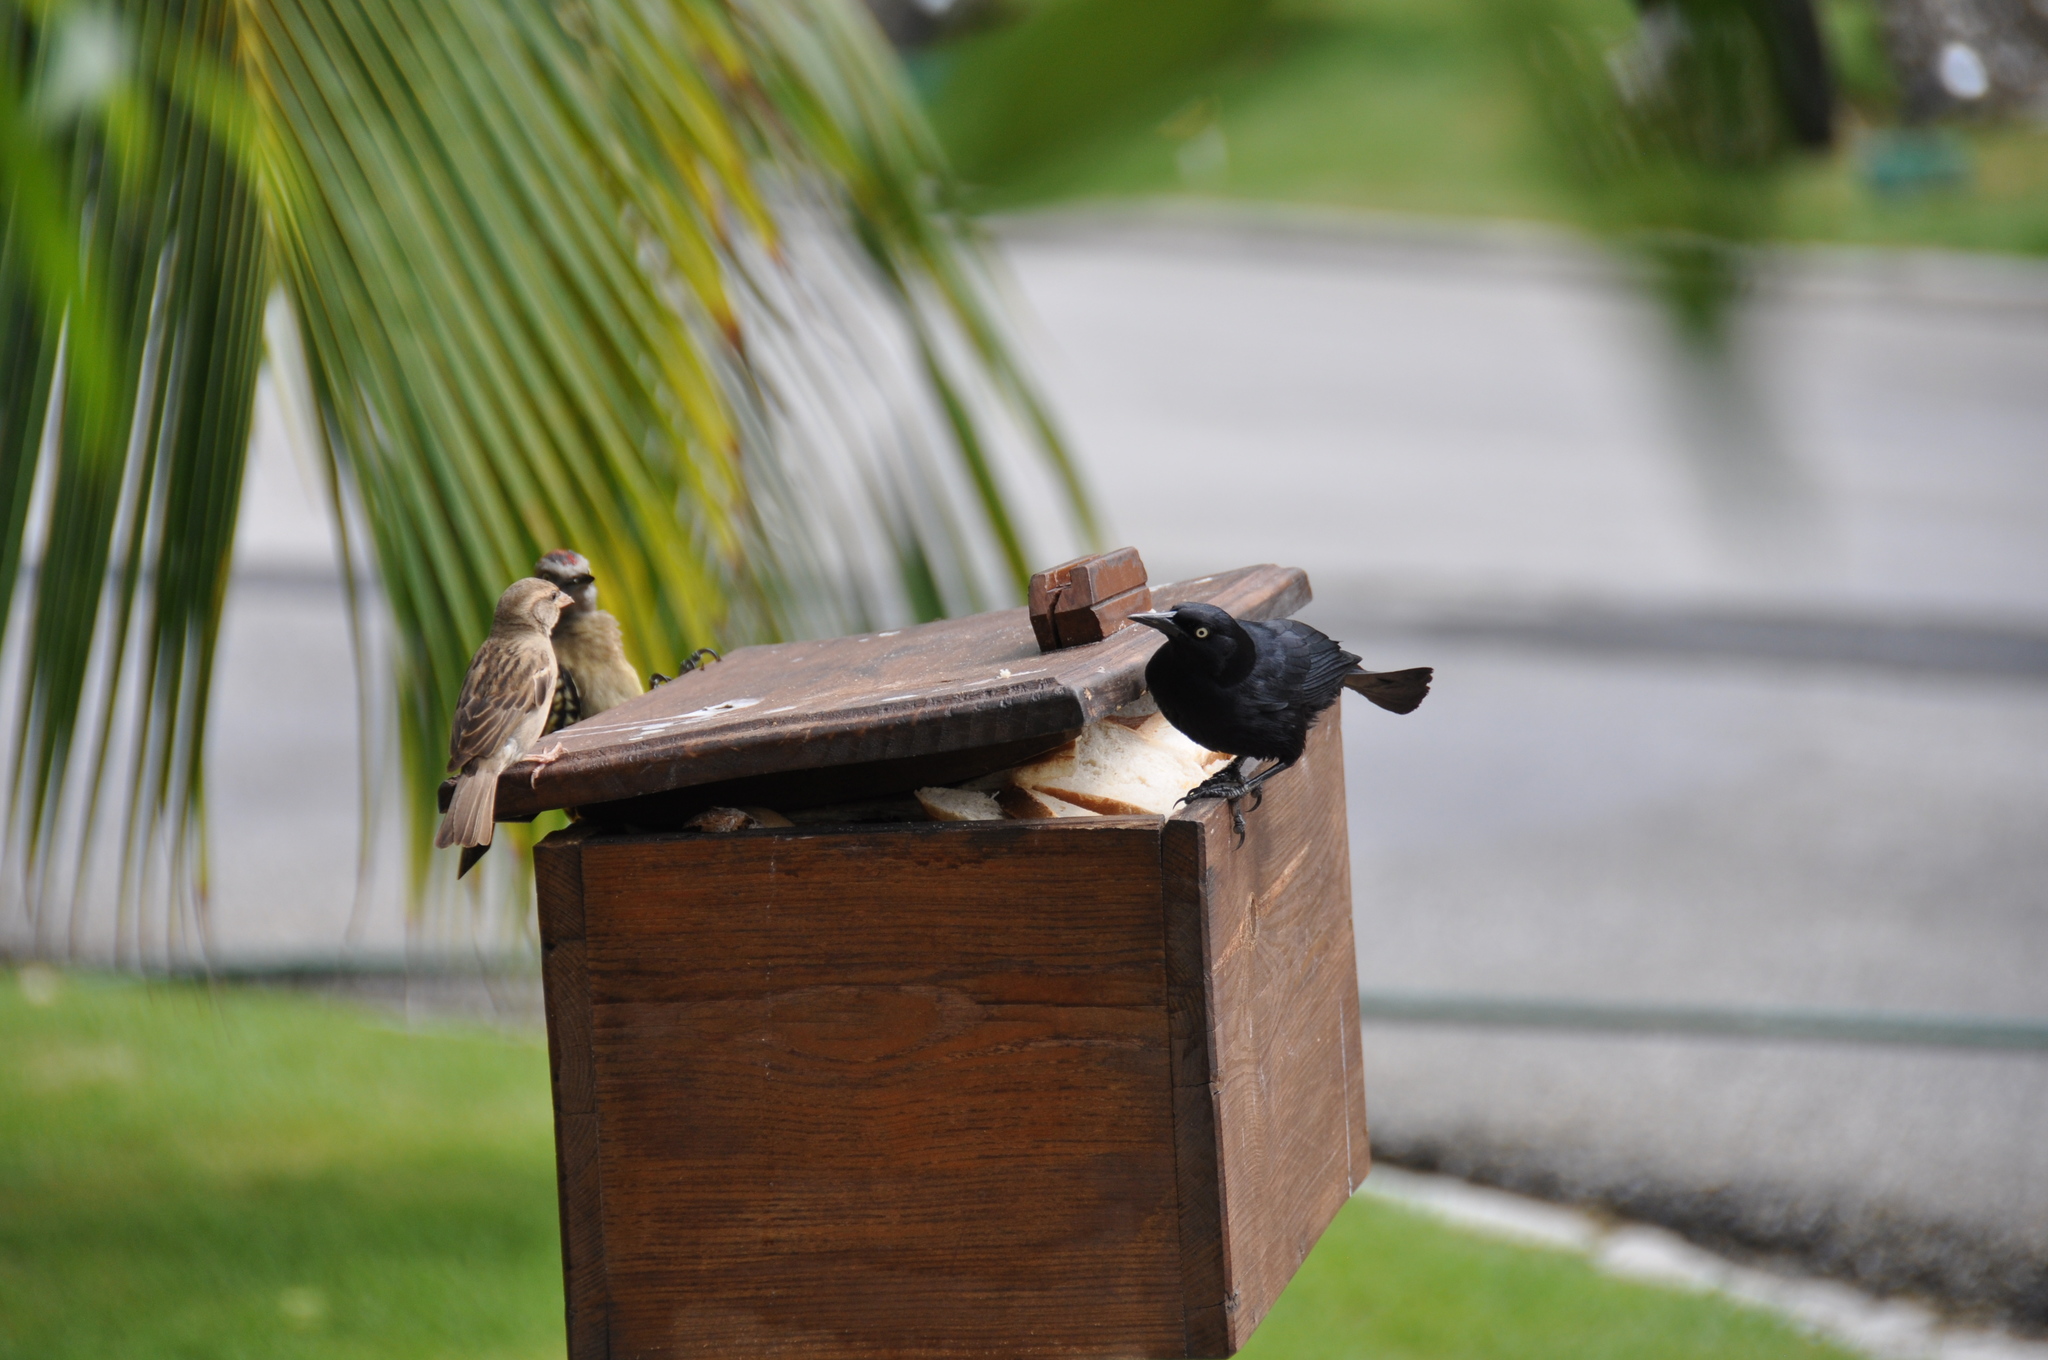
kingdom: Animalia
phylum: Chordata
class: Aves
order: Passeriformes
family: Icteridae
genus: Quiscalus
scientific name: Quiscalus niger
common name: Greater antillean grackle
